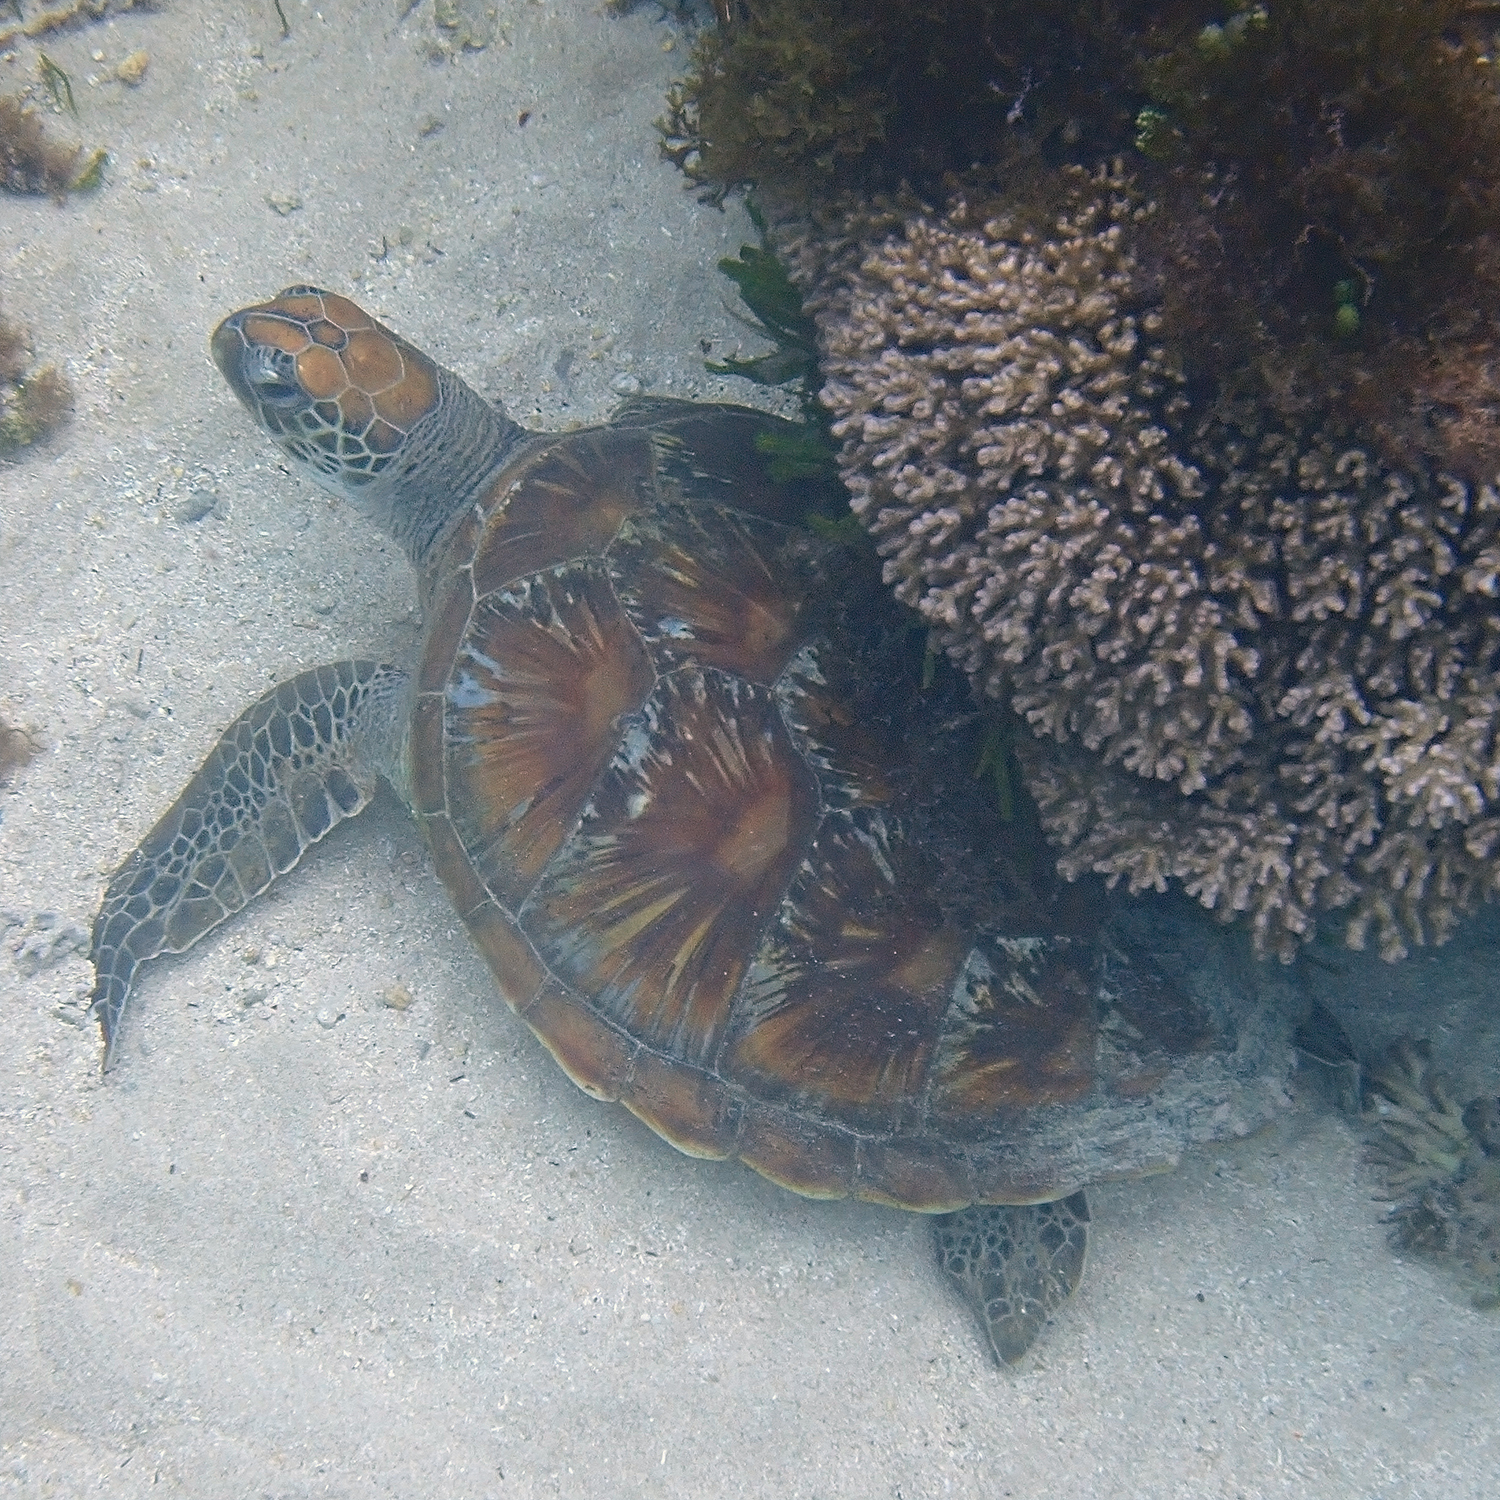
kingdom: Animalia
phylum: Chordata
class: Testudines
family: Cheloniidae
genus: Chelonia
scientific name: Chelonia mydas
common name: Green turtle
